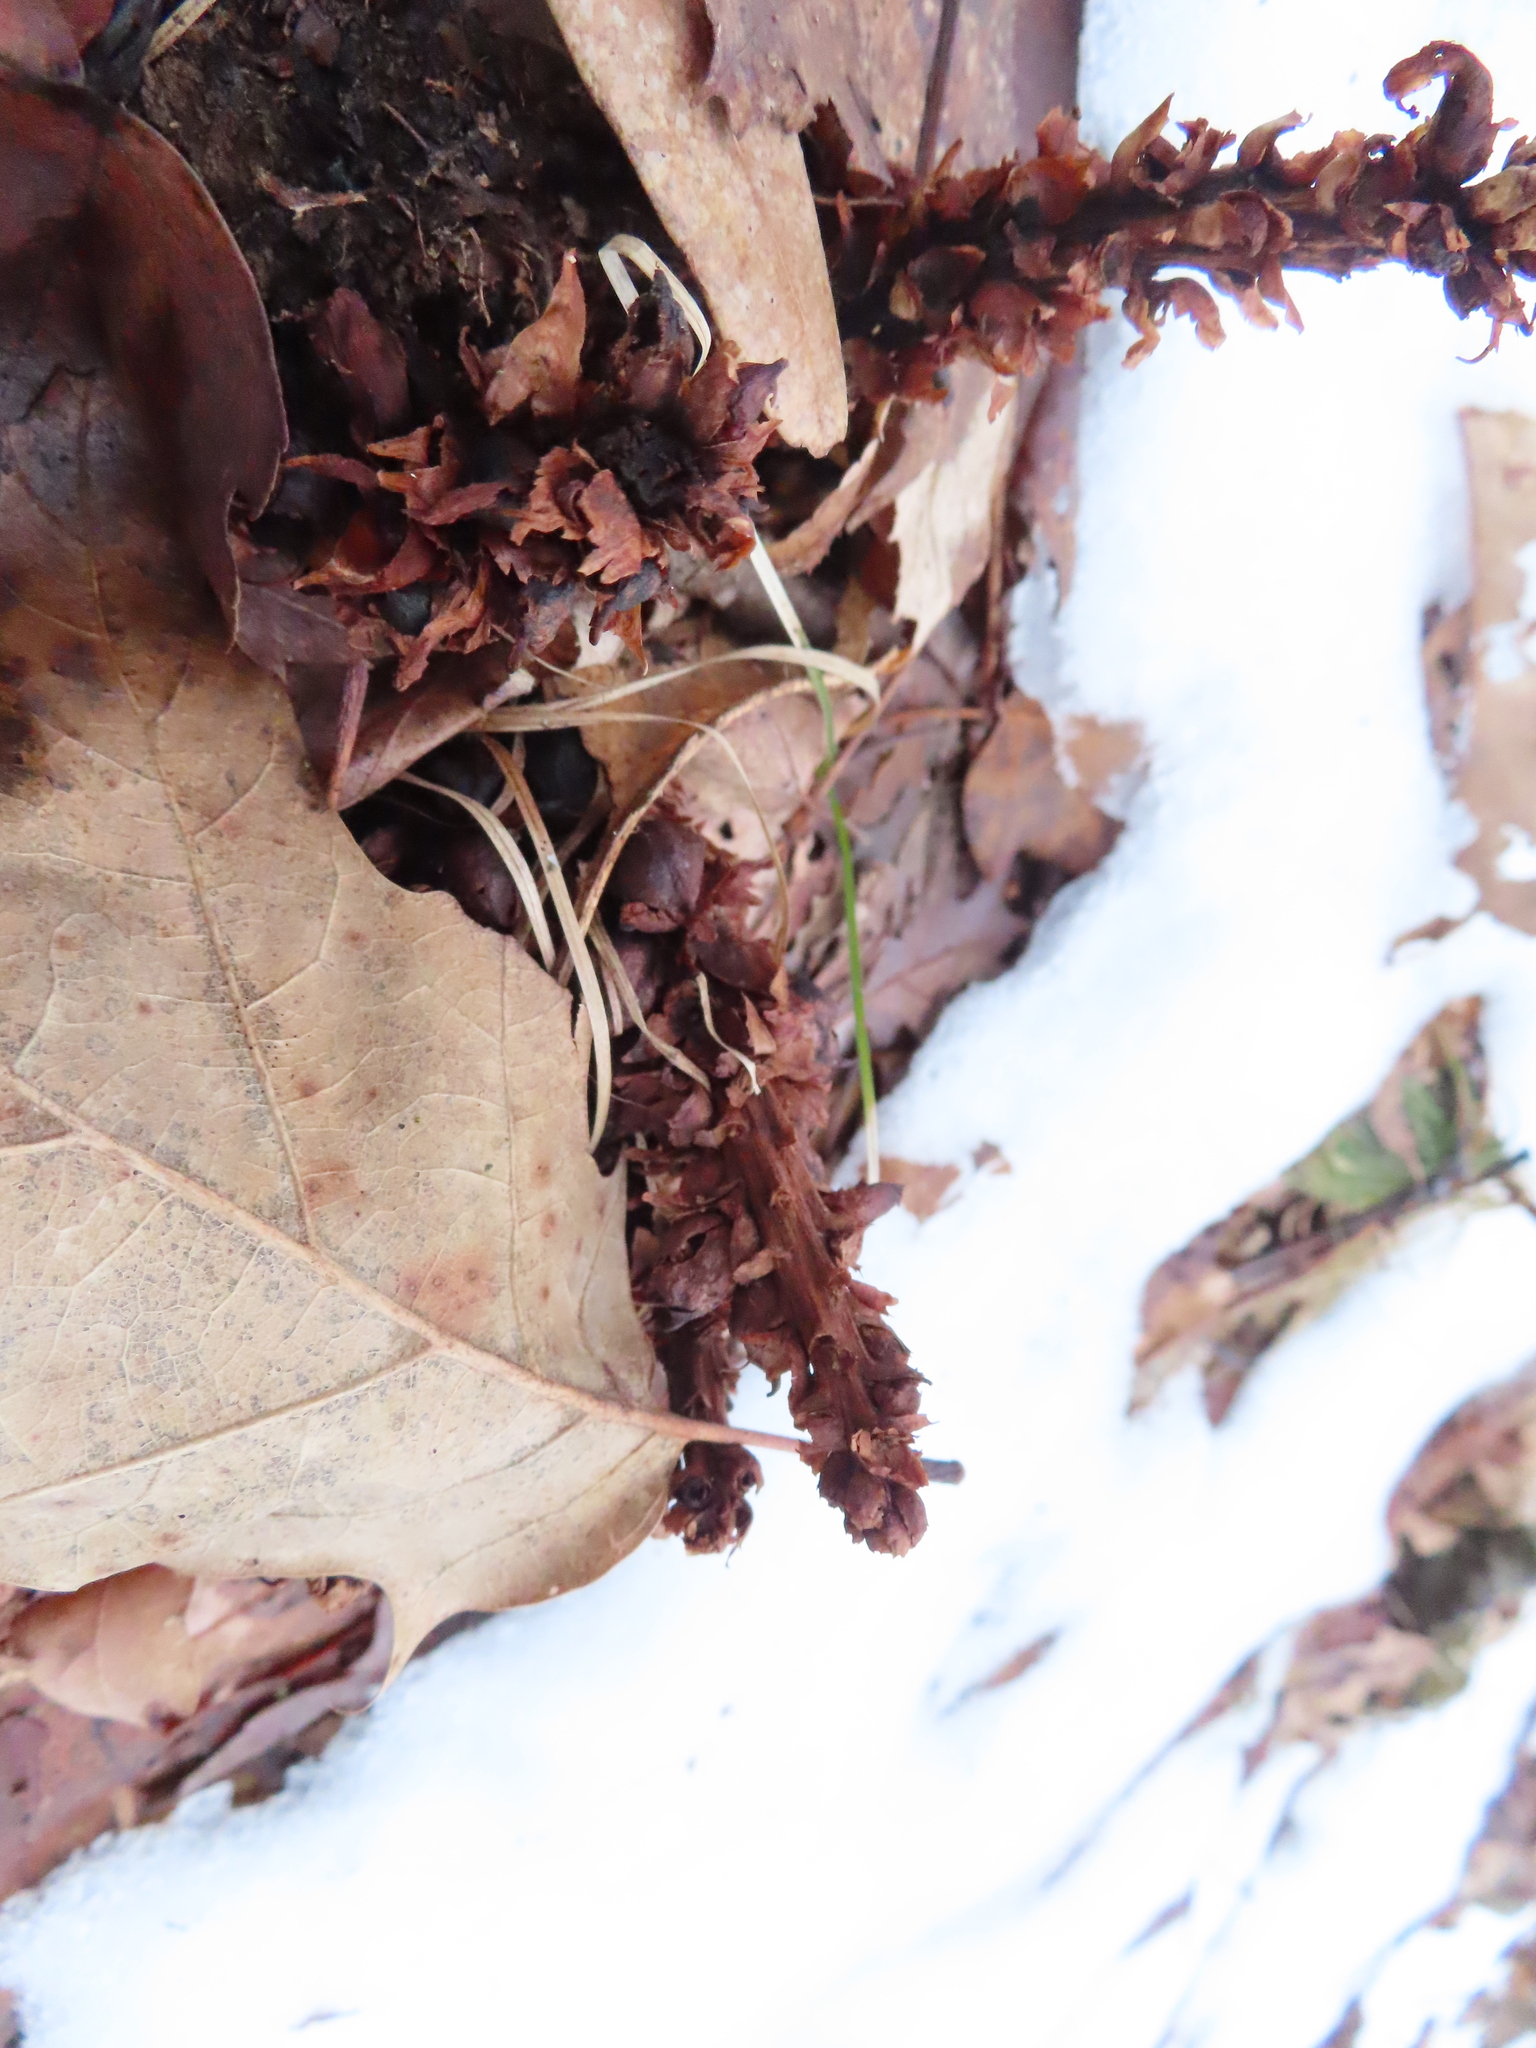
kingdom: Plantae
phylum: Tracheophyta
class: Magnoliopsida
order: Lamiales
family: Orobanchaceae
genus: Conopholis
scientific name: Conopholis americana
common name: American cancer-root
